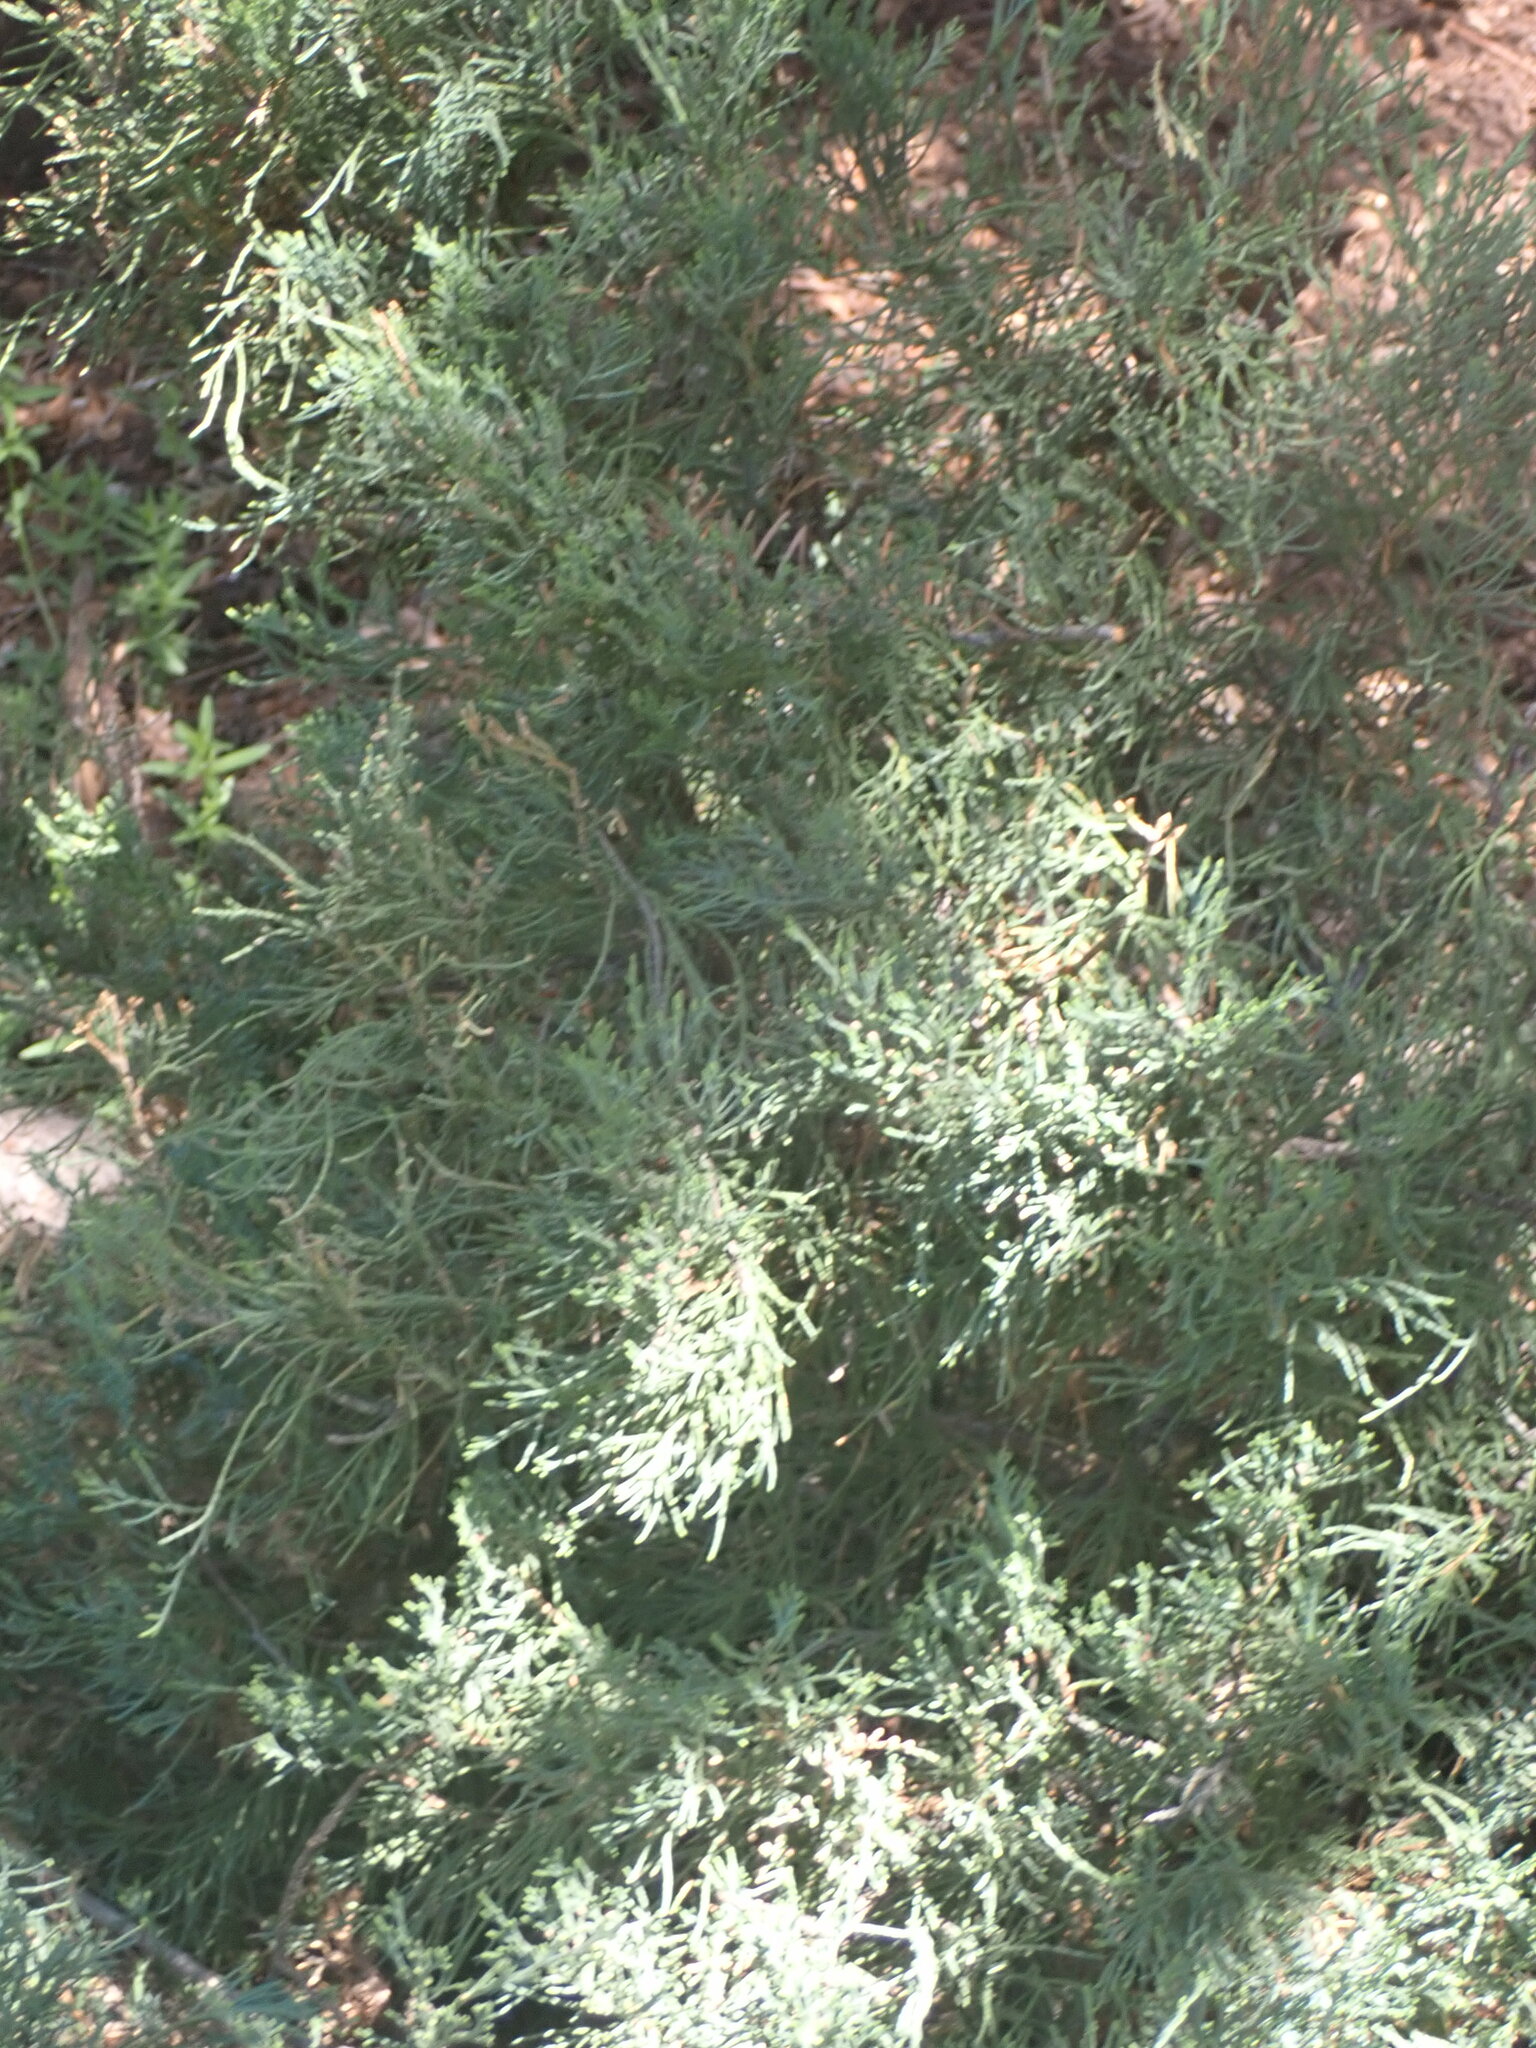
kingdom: Plantae
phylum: Tracheophyta
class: Pinopsida
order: Pinales
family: Cupressaceae
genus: Juniperus
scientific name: Juniperus scopulorum
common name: Rocky mountain juniper
